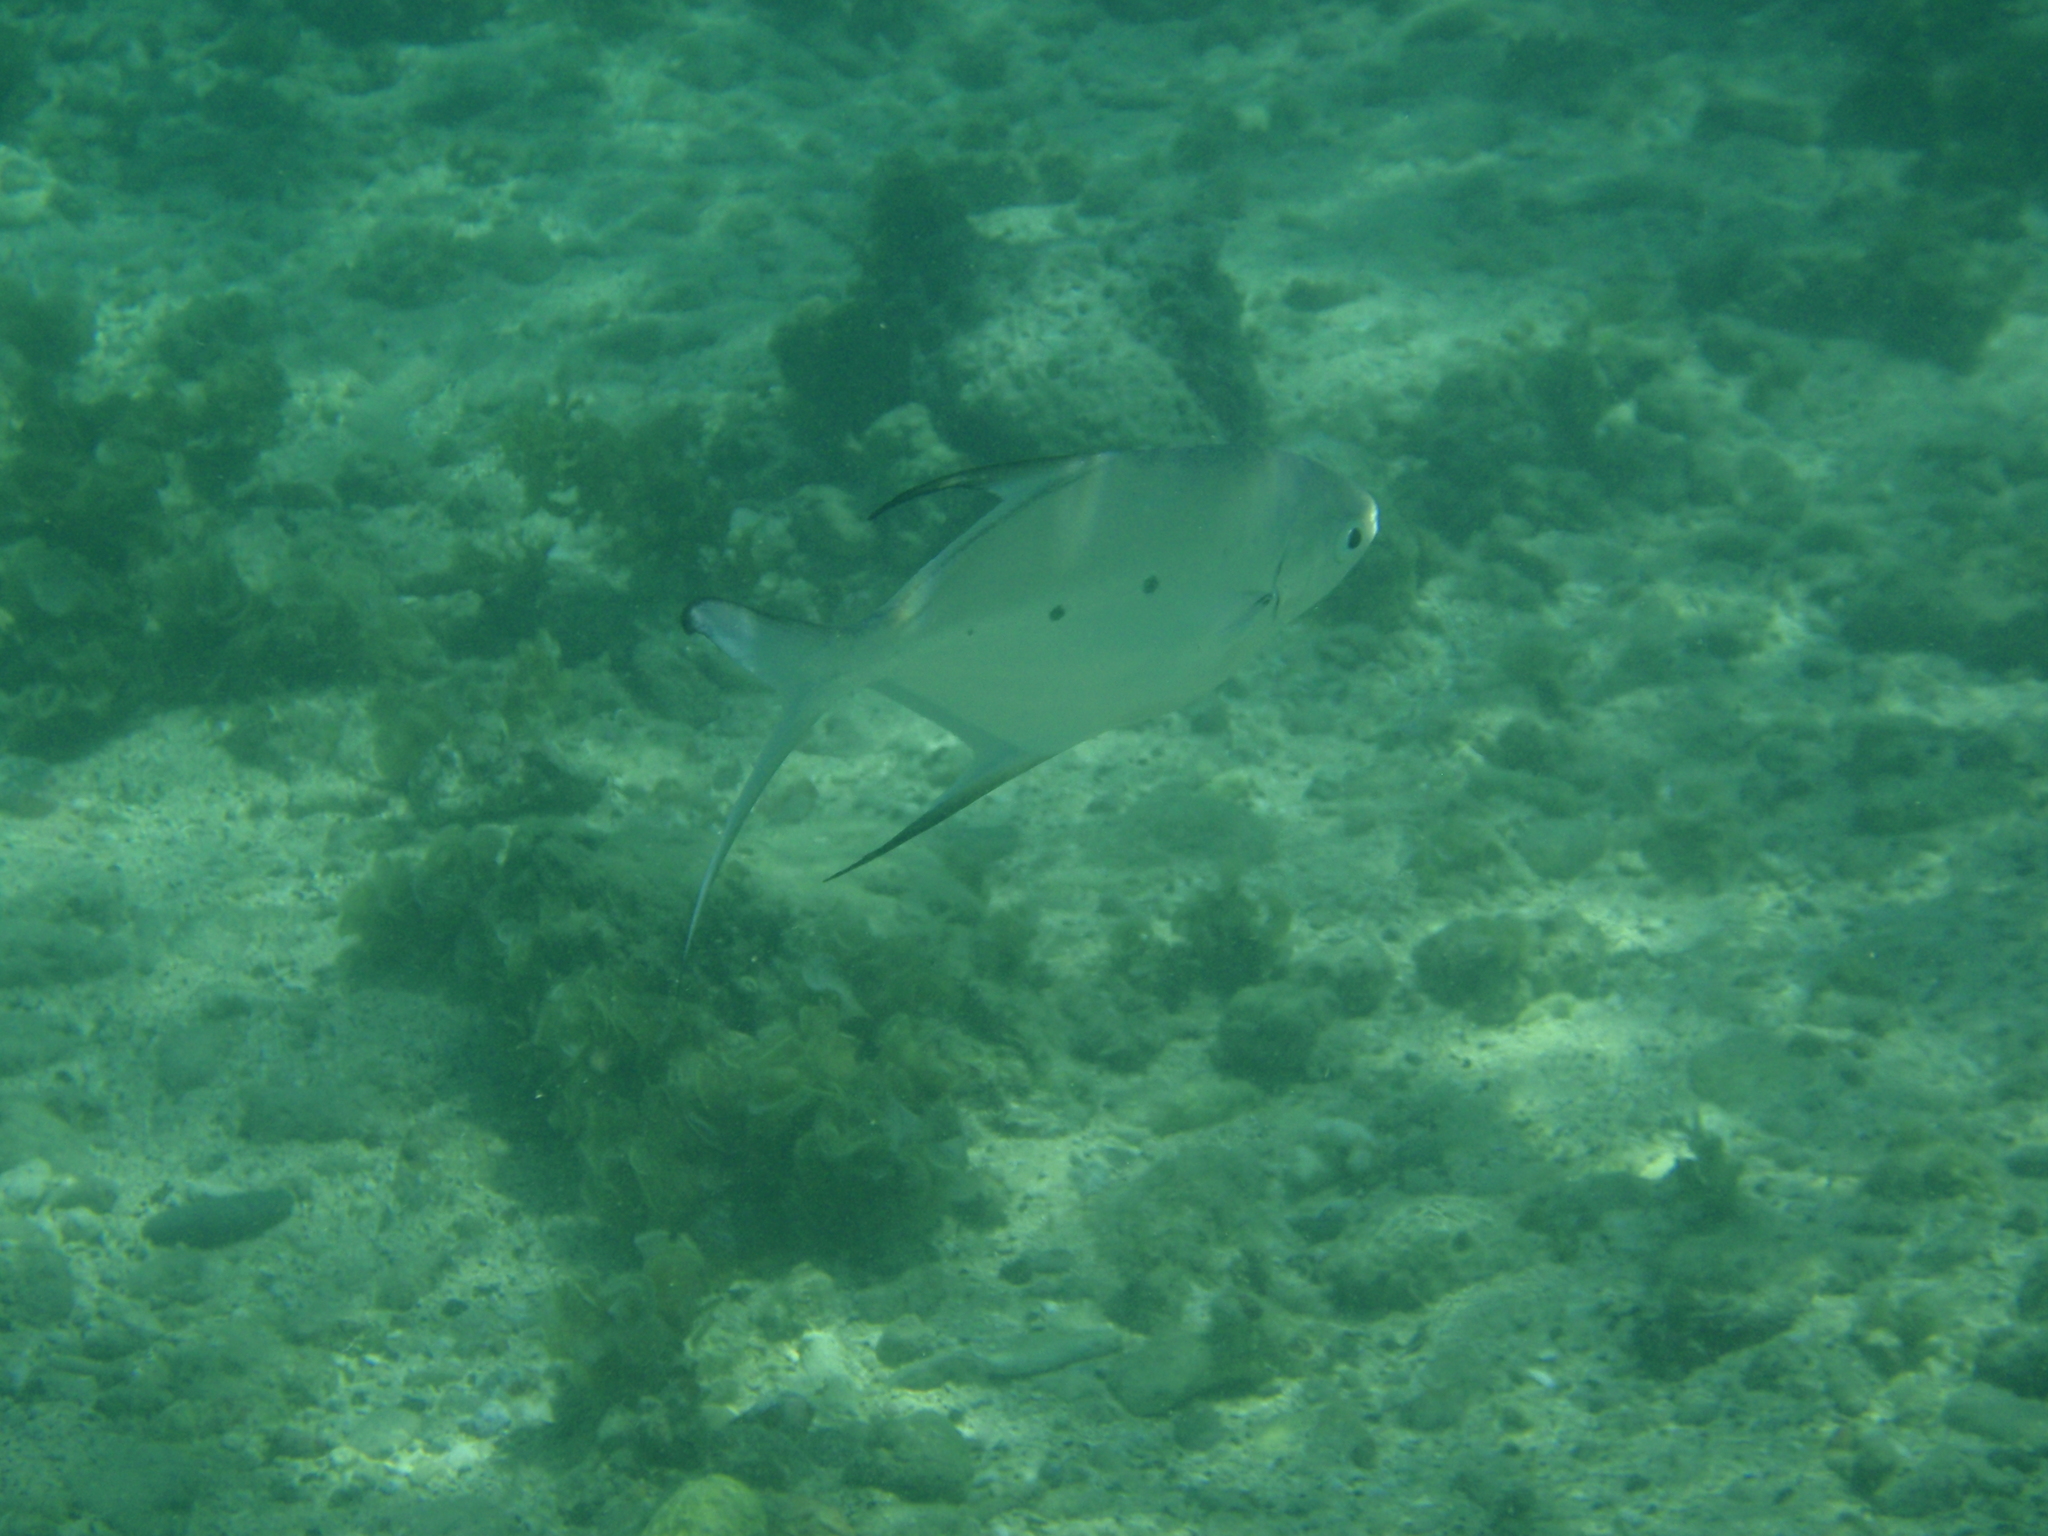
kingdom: Animalia
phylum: Chordata
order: Perciformes
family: Carangidae
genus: Trachinotus
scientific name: Trachinotus baillonii
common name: Smallspotted dart
